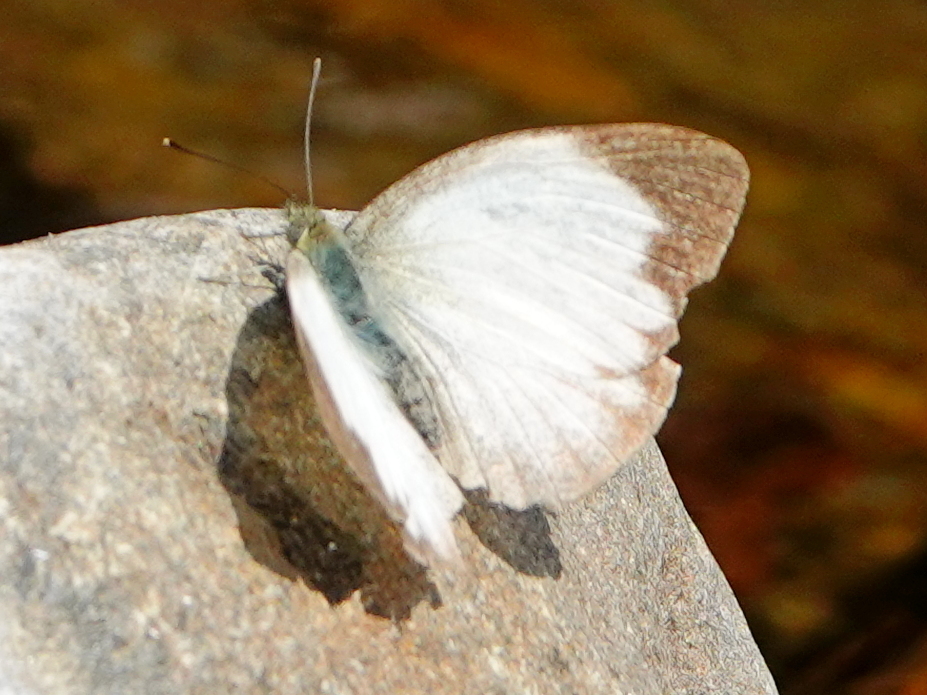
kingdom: Animalia
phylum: Arthropoda
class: Insecta
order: Lepidoptera
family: Pieridae
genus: Cepora
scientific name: Cepora nadina
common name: Lesser gull
